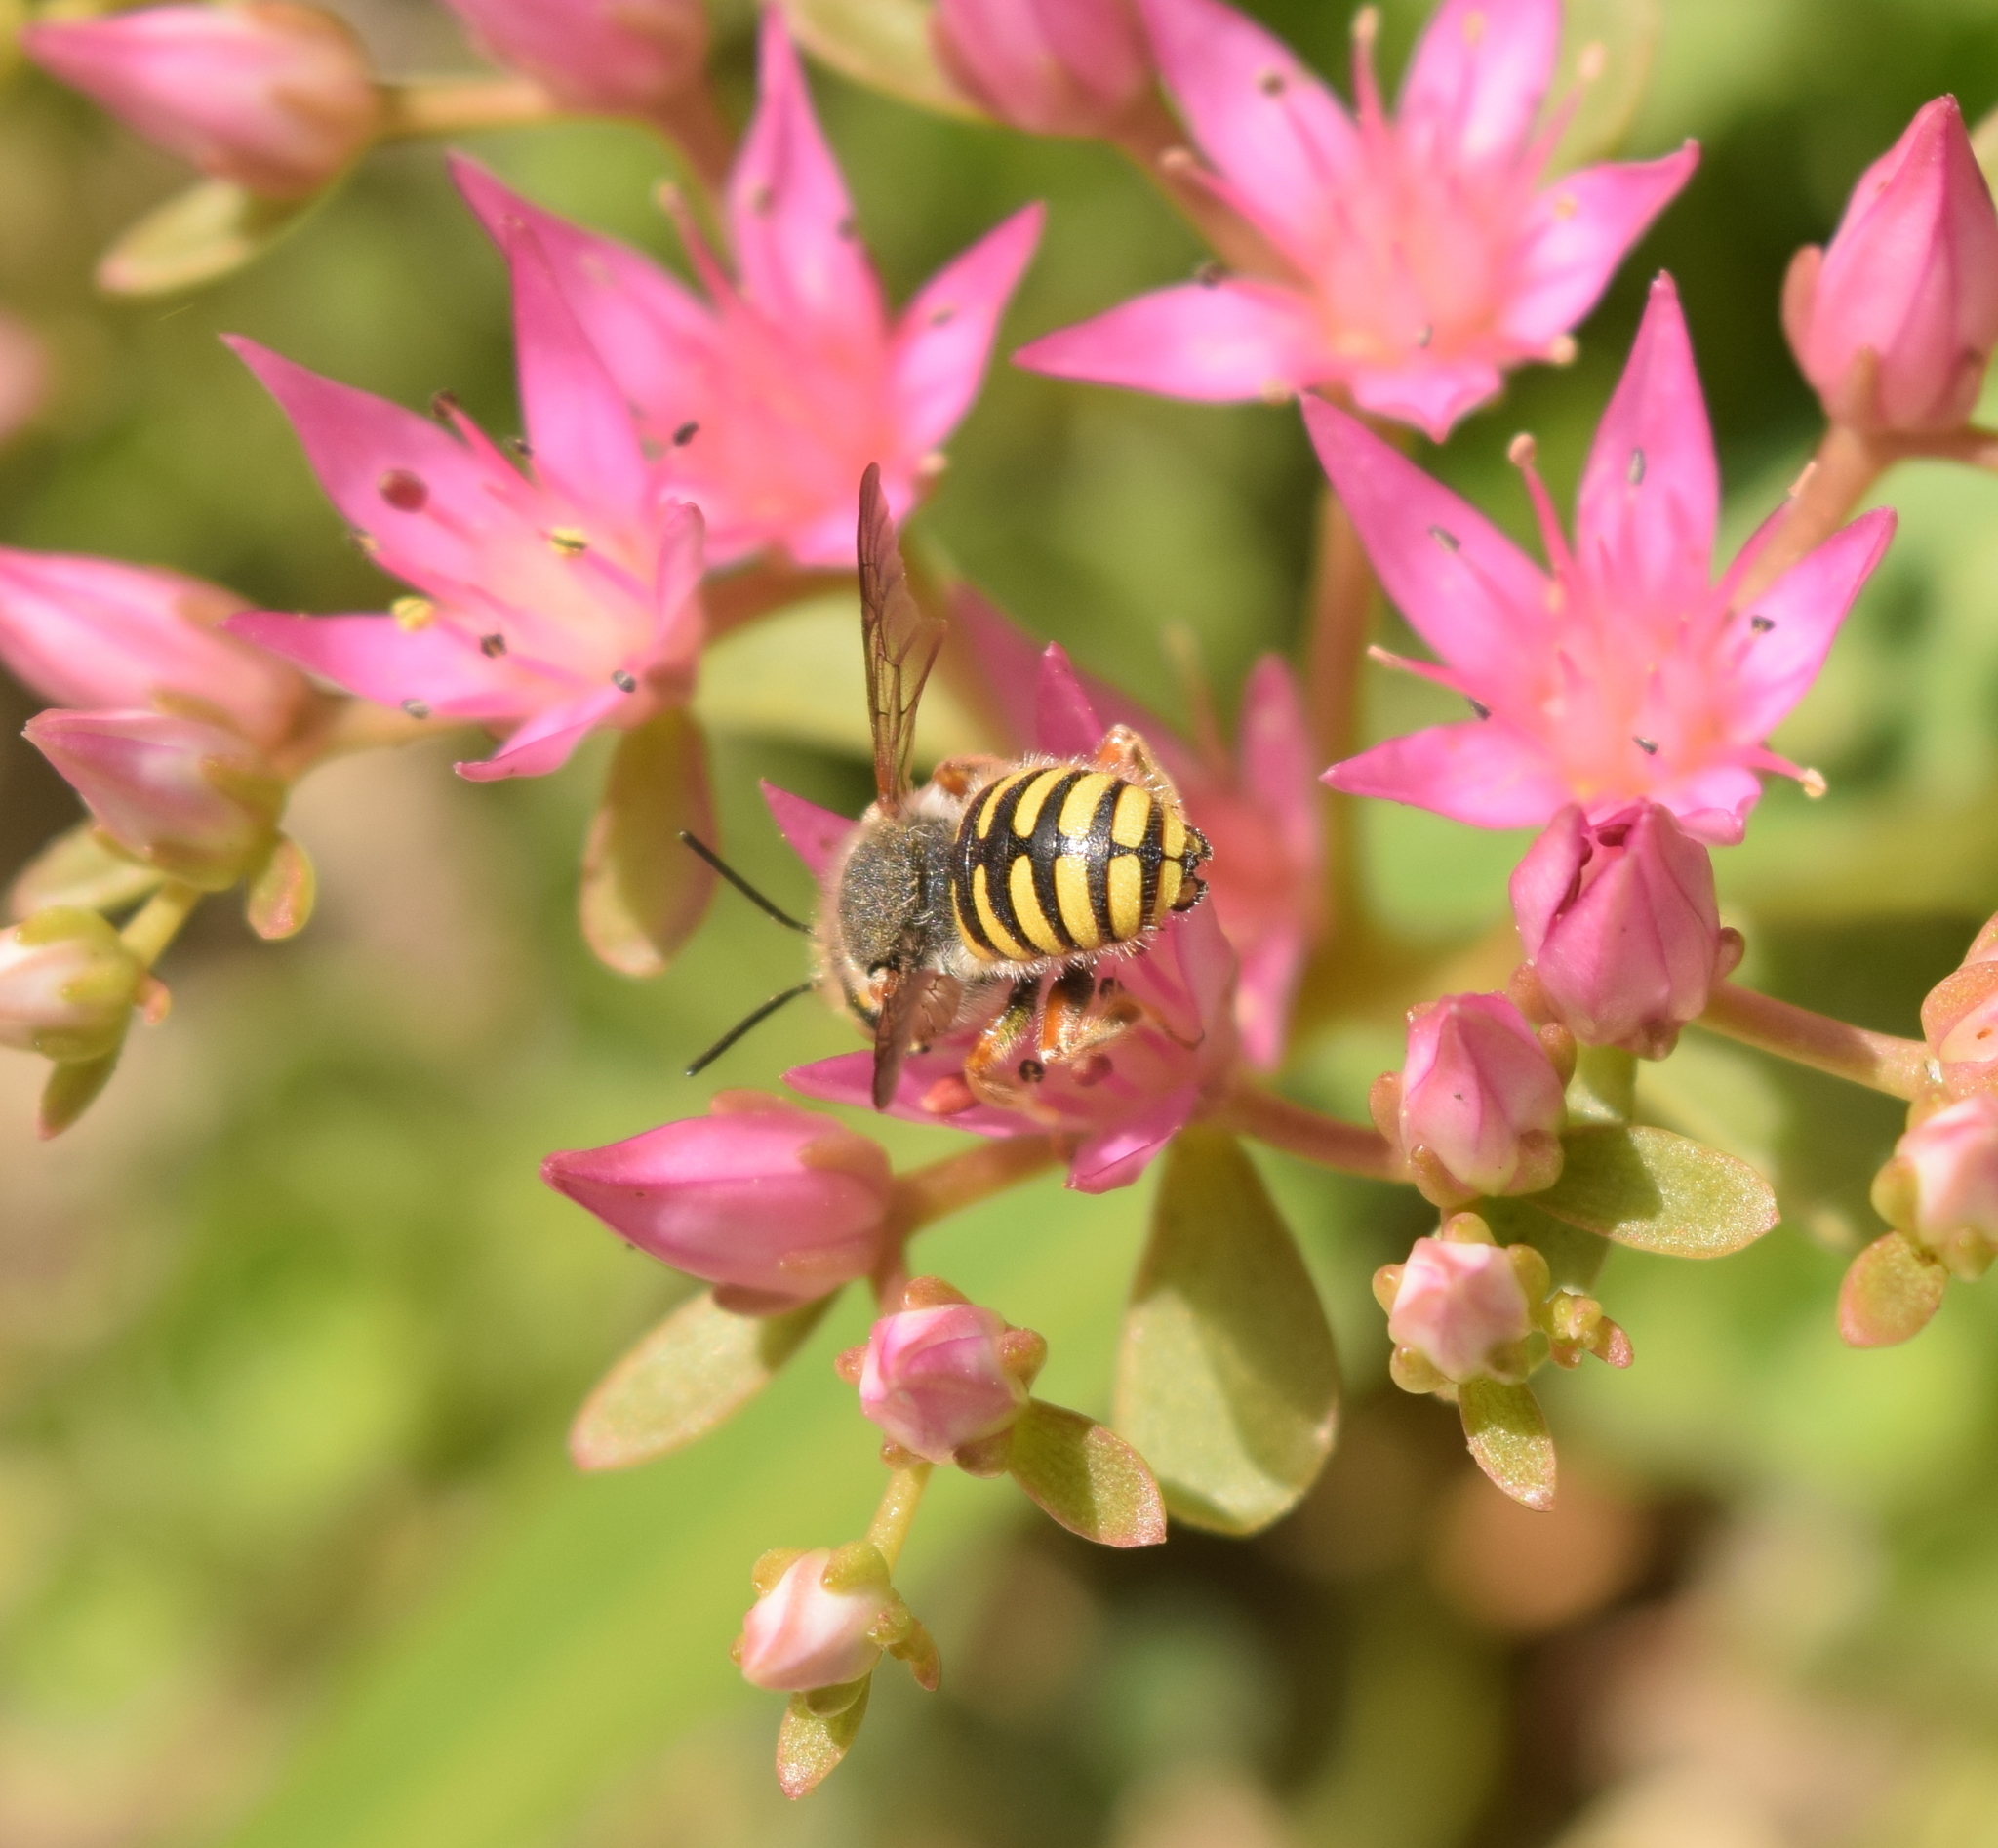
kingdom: Animalia
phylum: Arthropoda
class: Insecta
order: Hymenoptera
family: Megachilidae
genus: Anthidium
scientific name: Anthidium oblongatum
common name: Oblong wool carder bee
